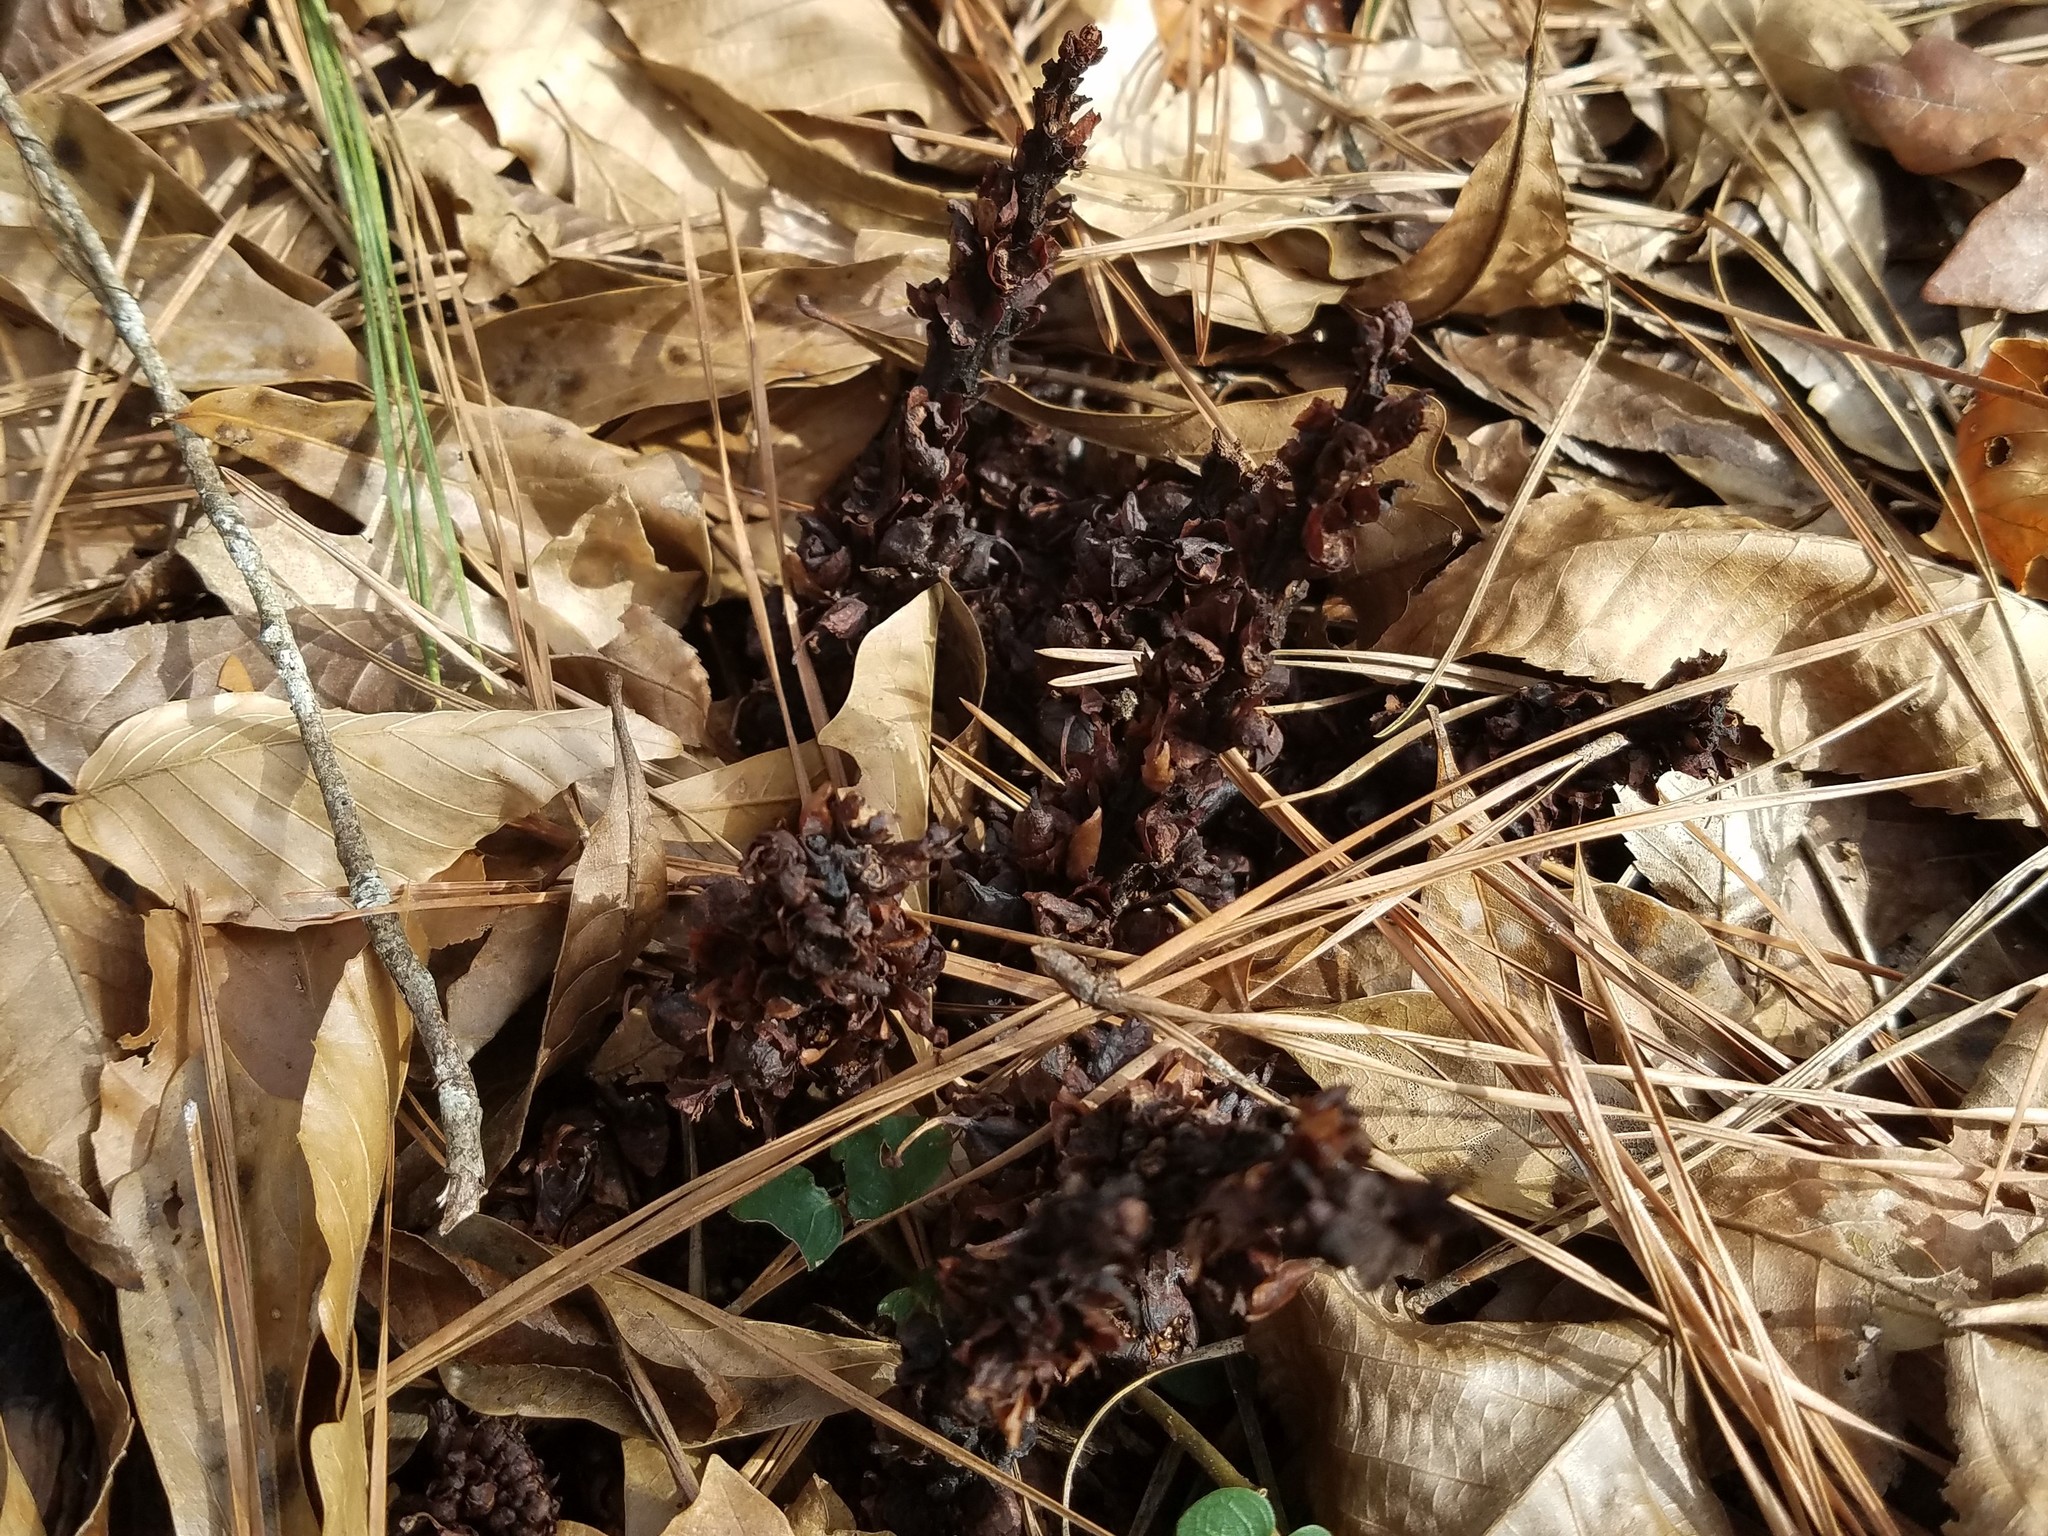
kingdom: Plantae
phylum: Tracheophyta
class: Magnoliopsida
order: Lamiales
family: Orobanchaceae
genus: Conopholis
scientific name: Conopholis americana
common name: American cancer-root
